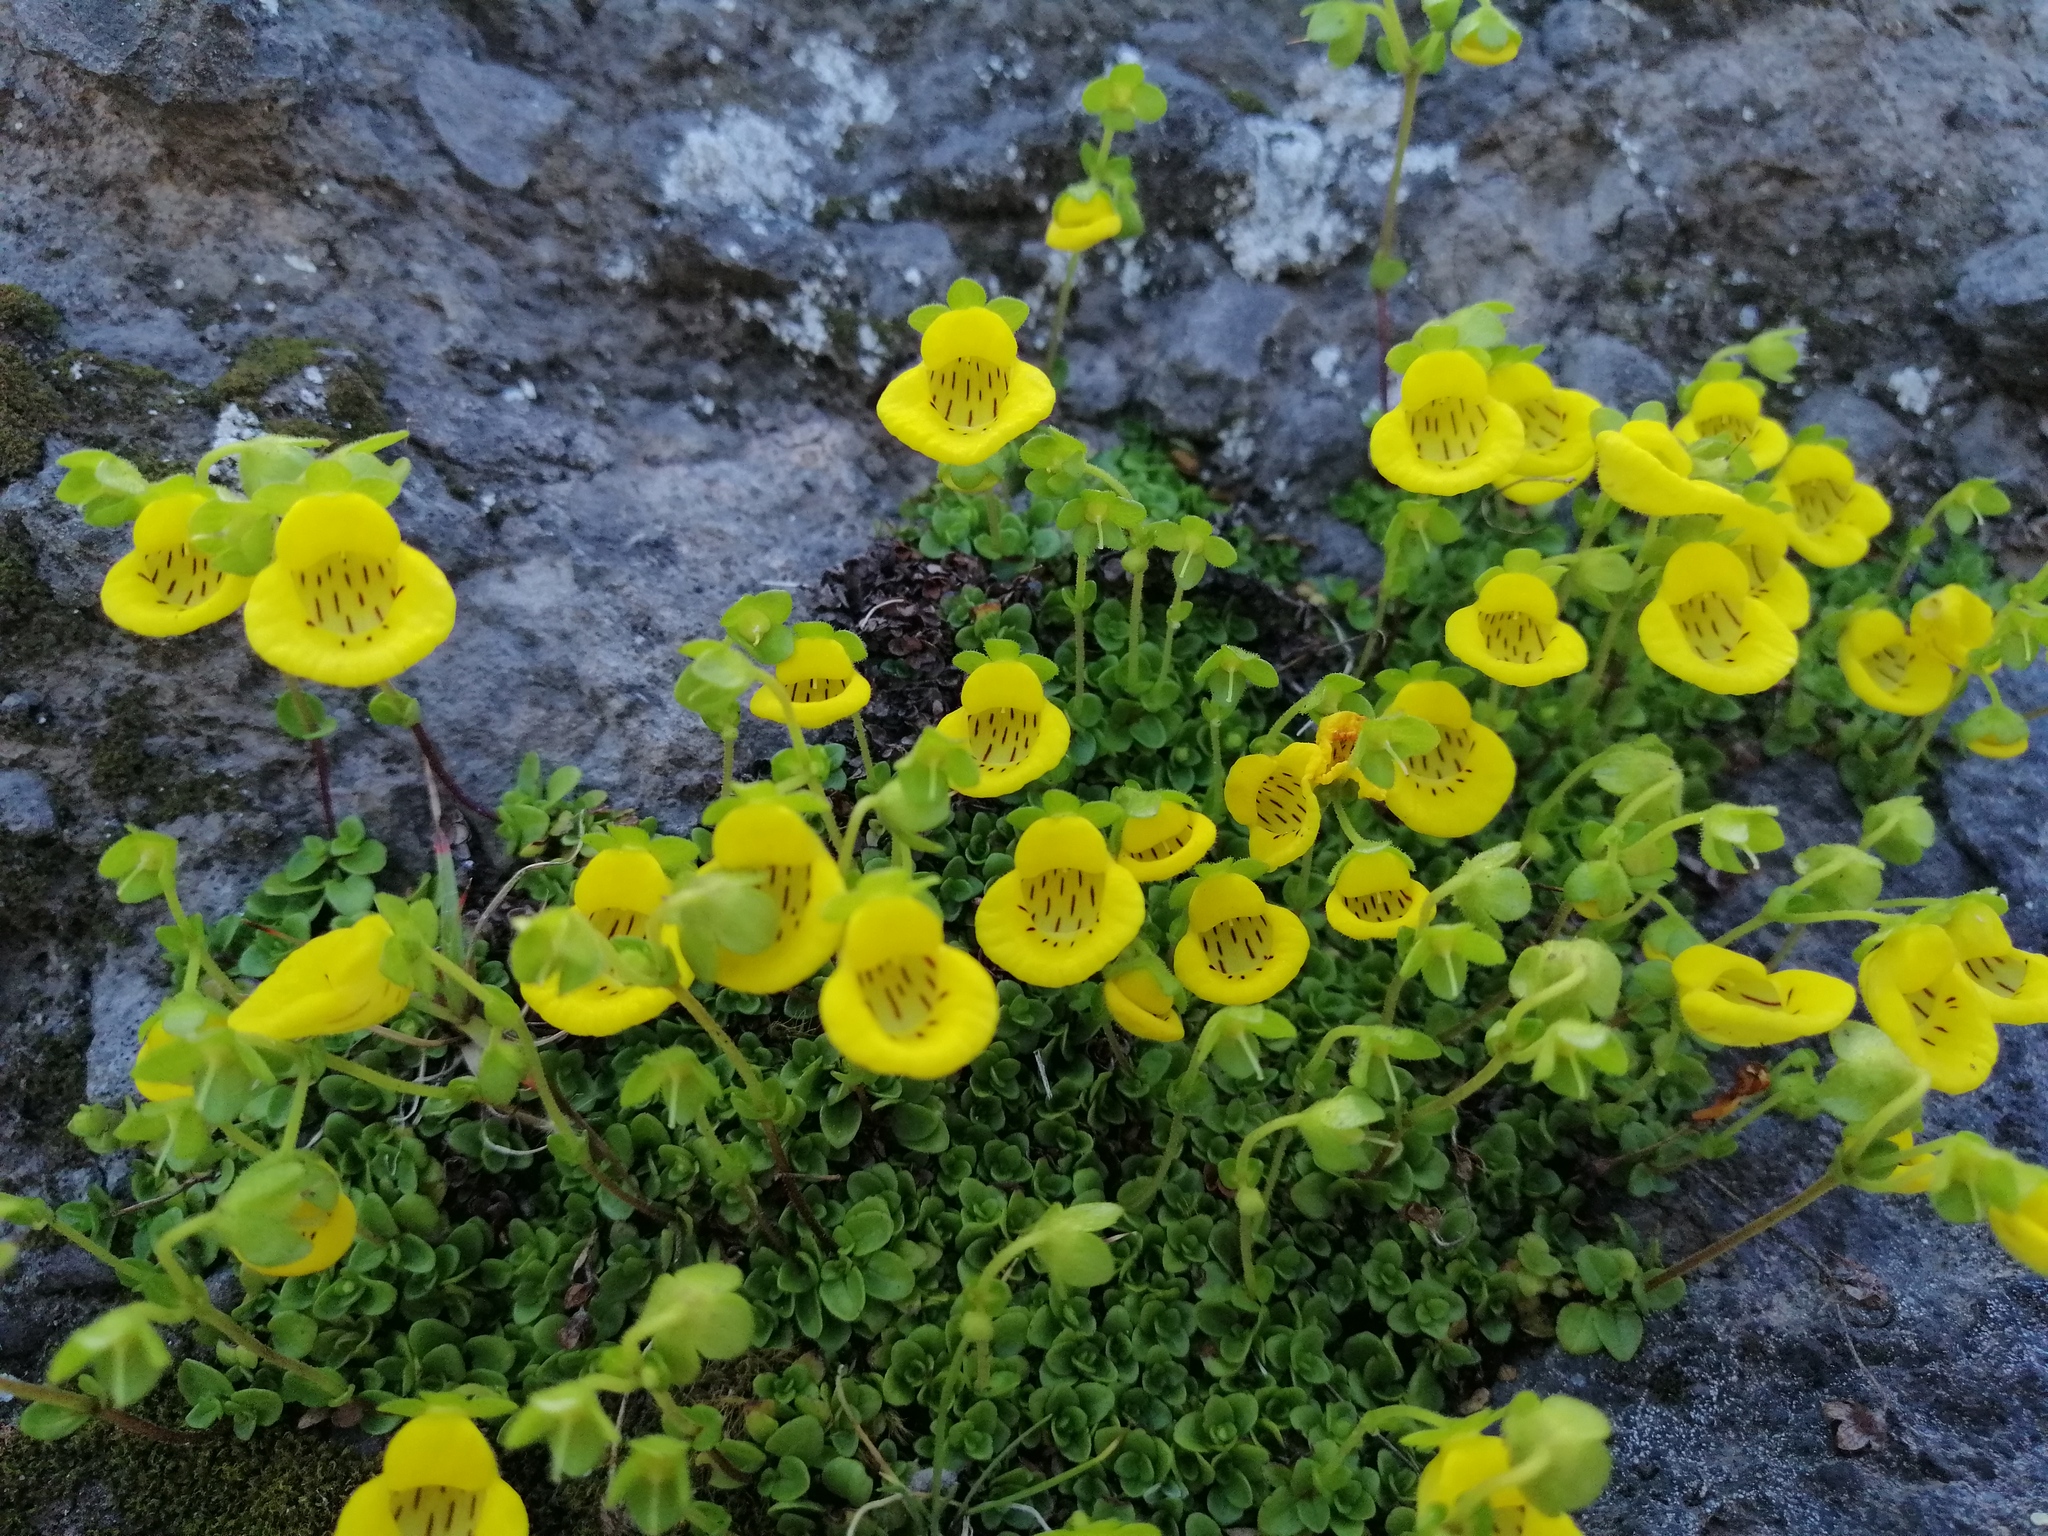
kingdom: Plantae
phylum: Tracheophyta
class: Magnoliopsida
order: Lamiales
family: Calceolariaceae
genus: Calceolaria
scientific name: Calceolaria tenella
